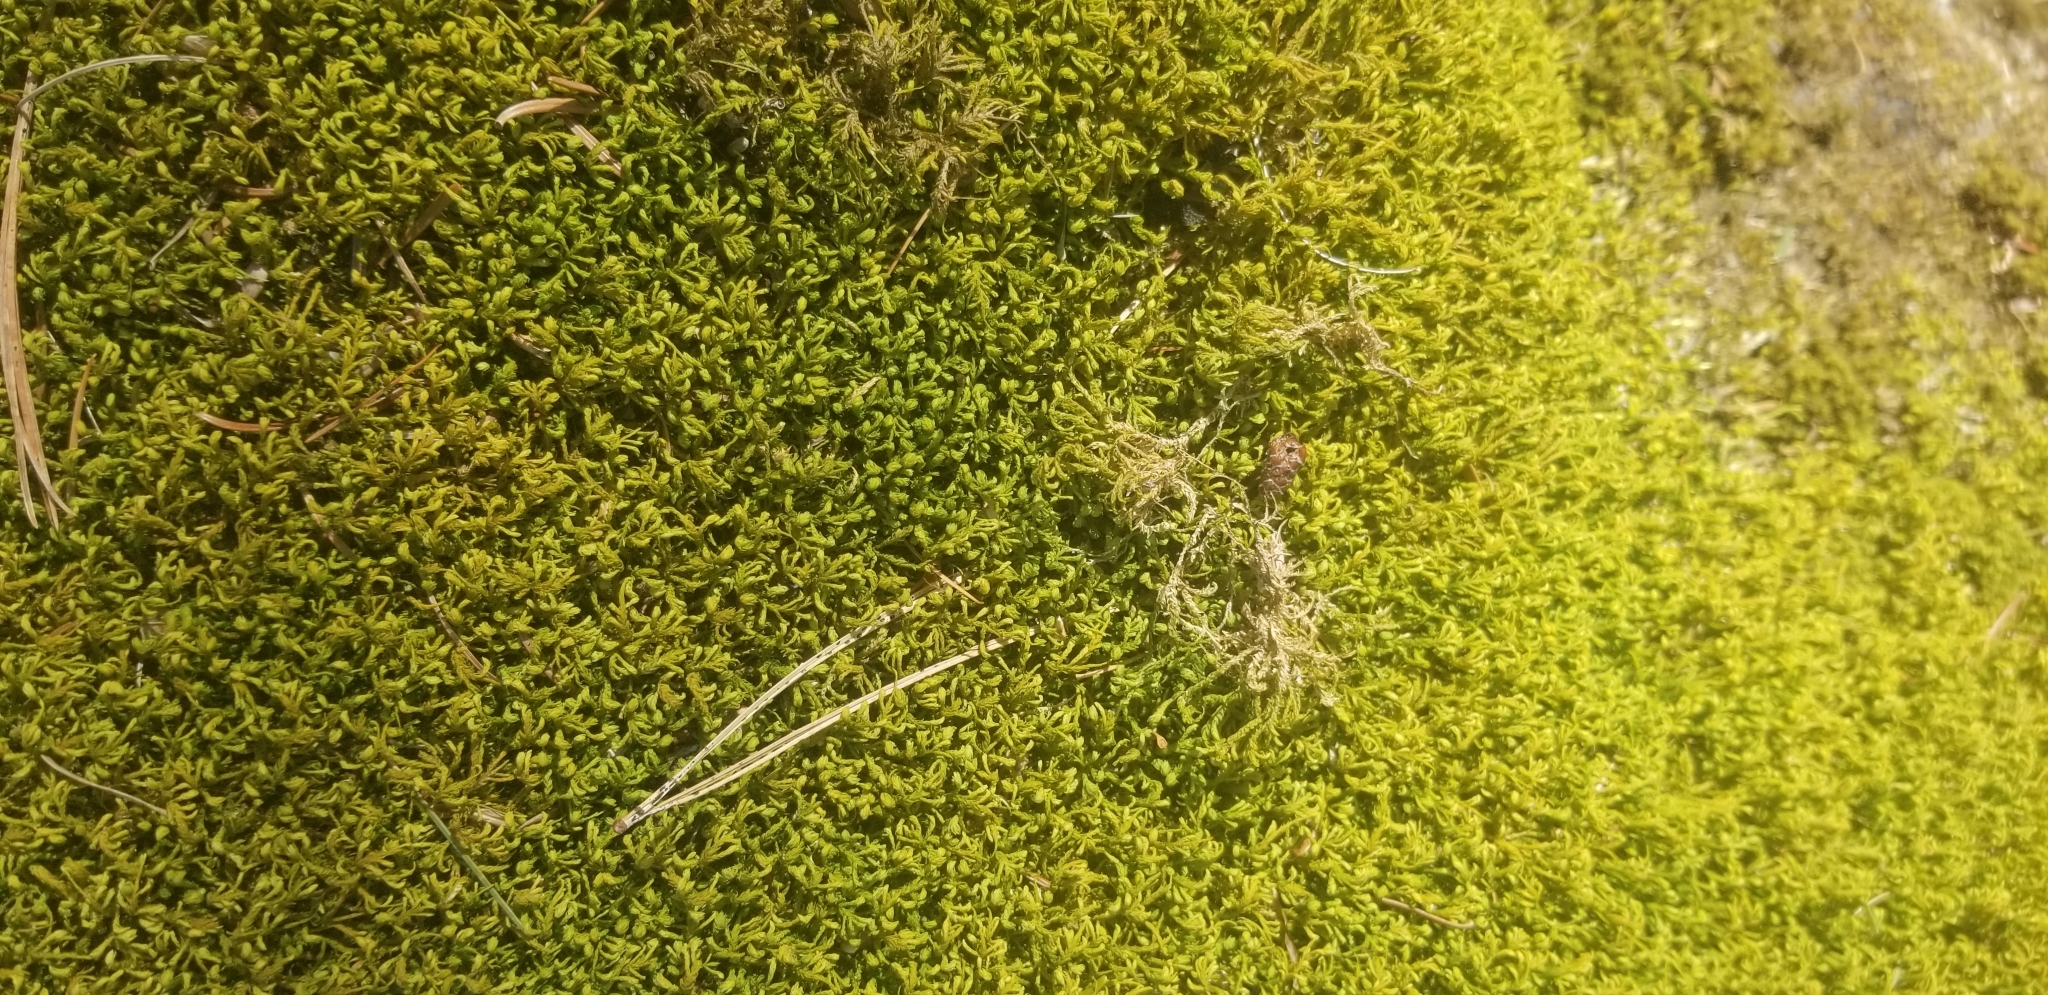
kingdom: Plantae
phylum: Bryophyta
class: Bryopsida
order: Hypnales
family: Neckeraceae
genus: Pseudanomodon
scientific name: Pseudanomodon attenuatus
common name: Tree-skirt moss
